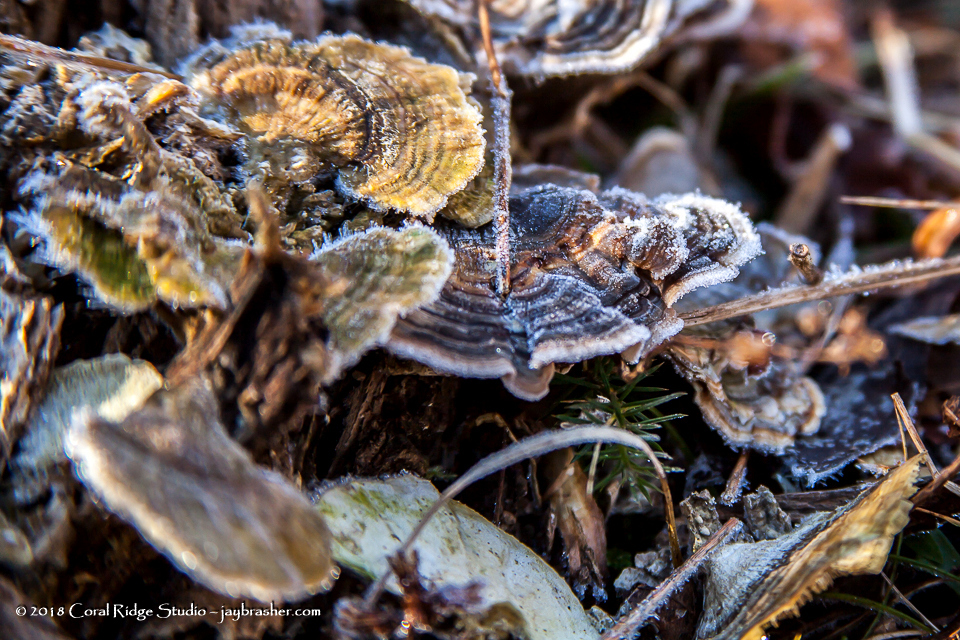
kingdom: Fungi
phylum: Basidiomycota
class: Agaricomycetes
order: Polyporales
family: Polyporaceae
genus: Trametes
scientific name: Trametes versicolor
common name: Turkeytail
